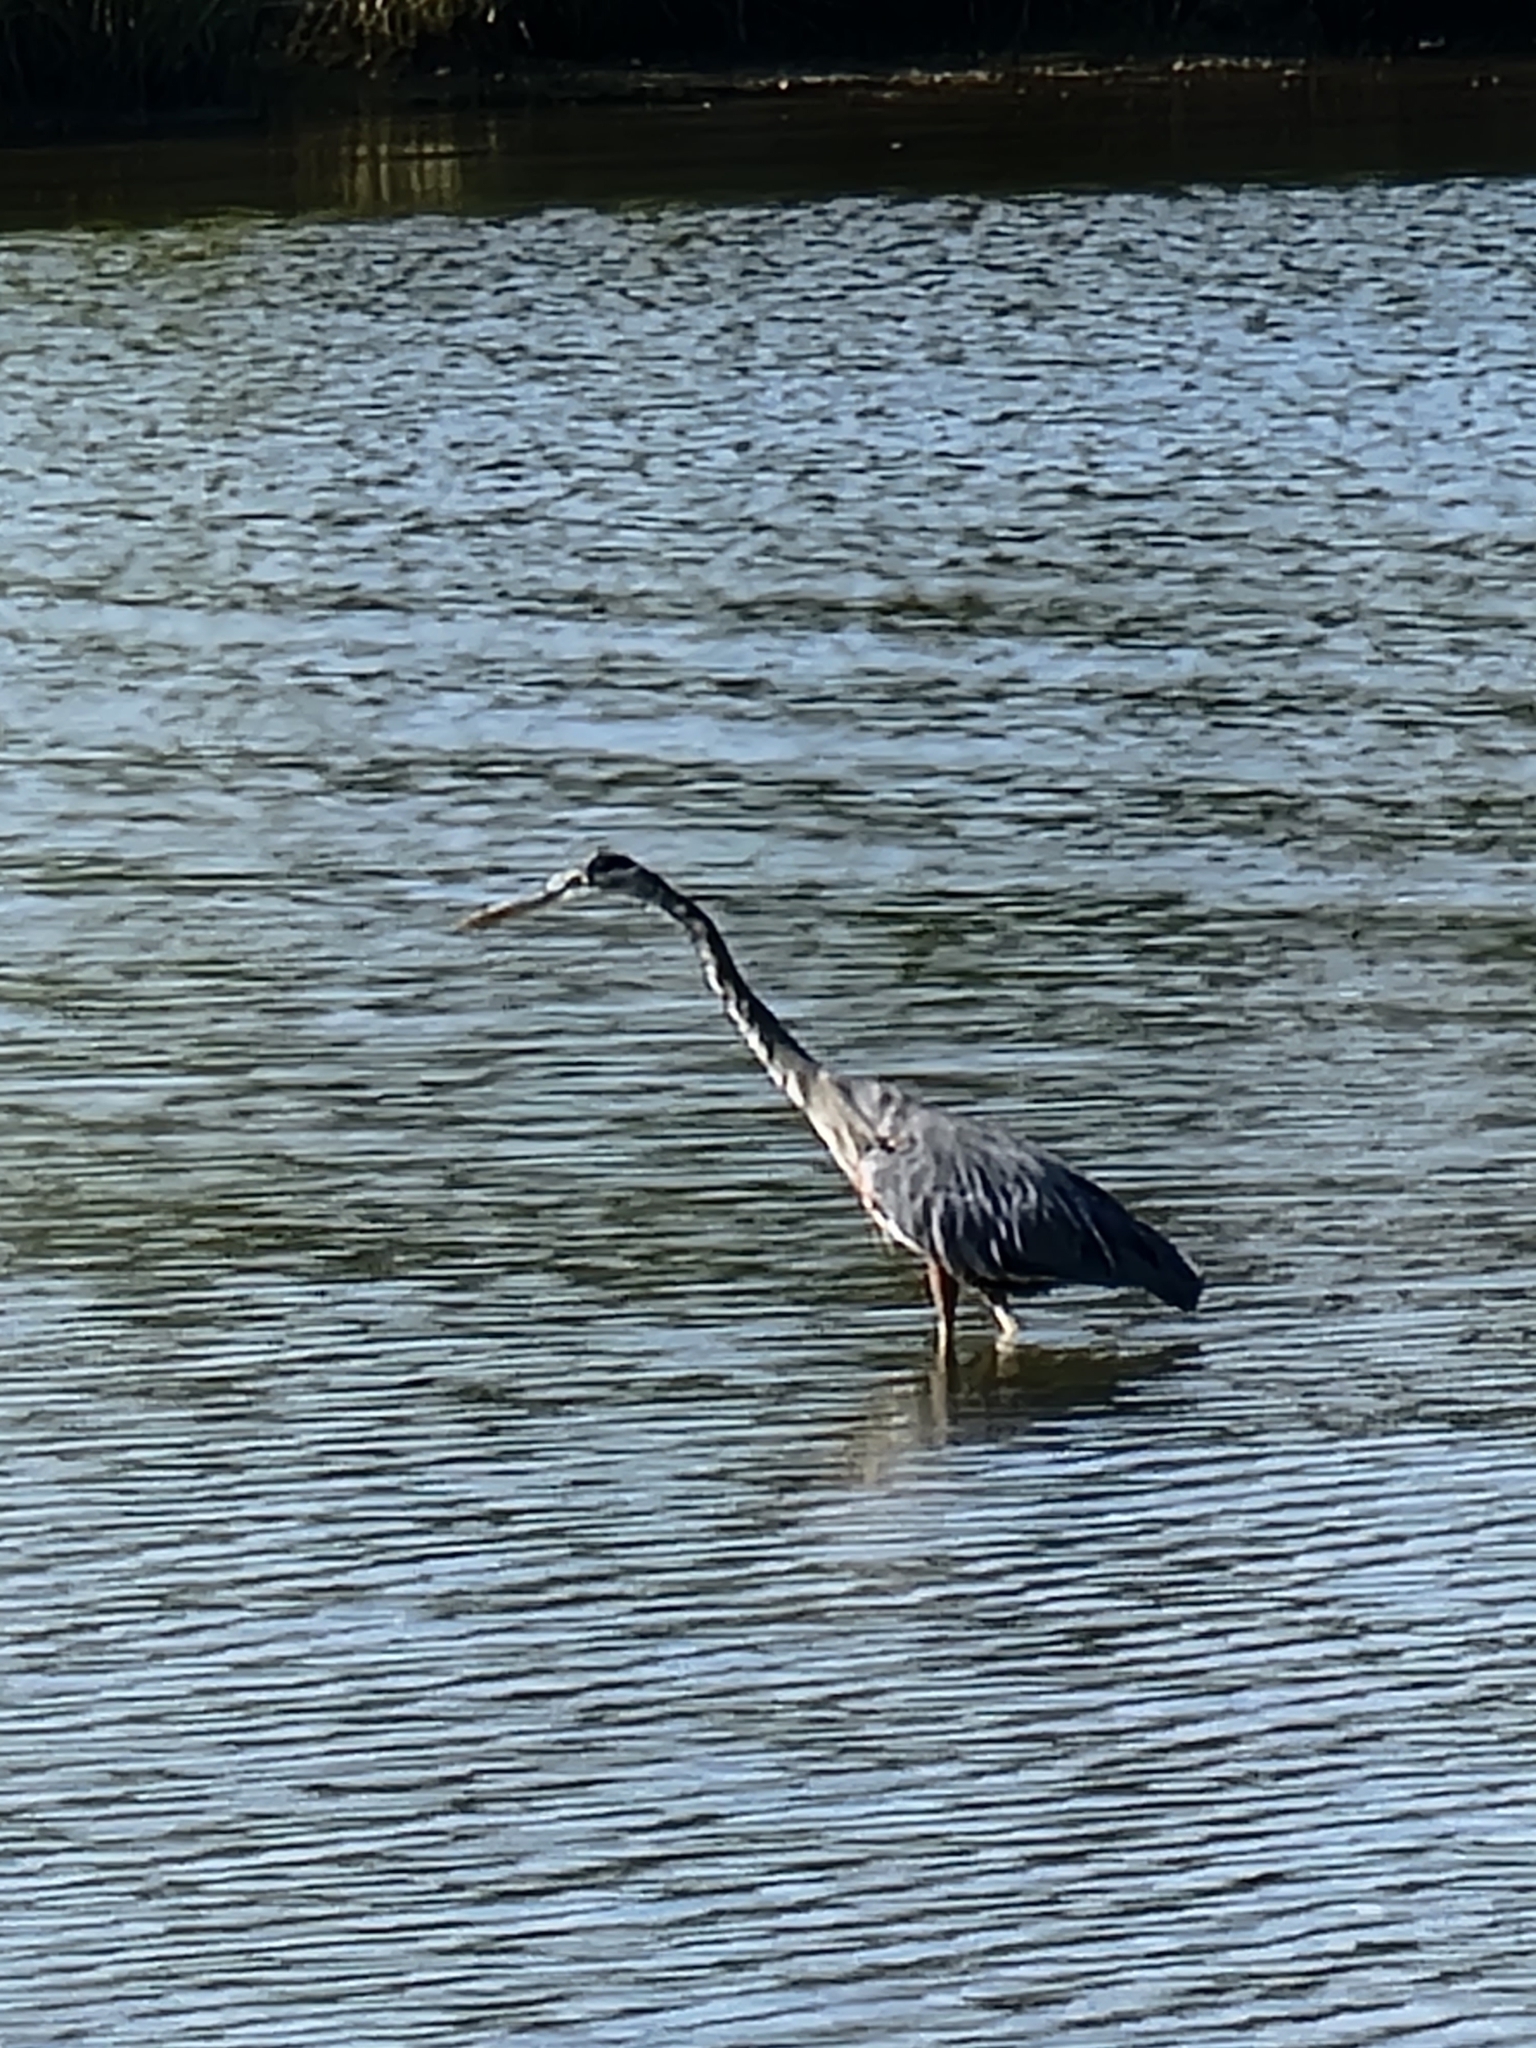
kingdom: Animalia
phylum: Chordata
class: Aves
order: Pelecaniformes
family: Ardeidae
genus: Ardea
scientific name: Ardea herodias
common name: Great blue heron
